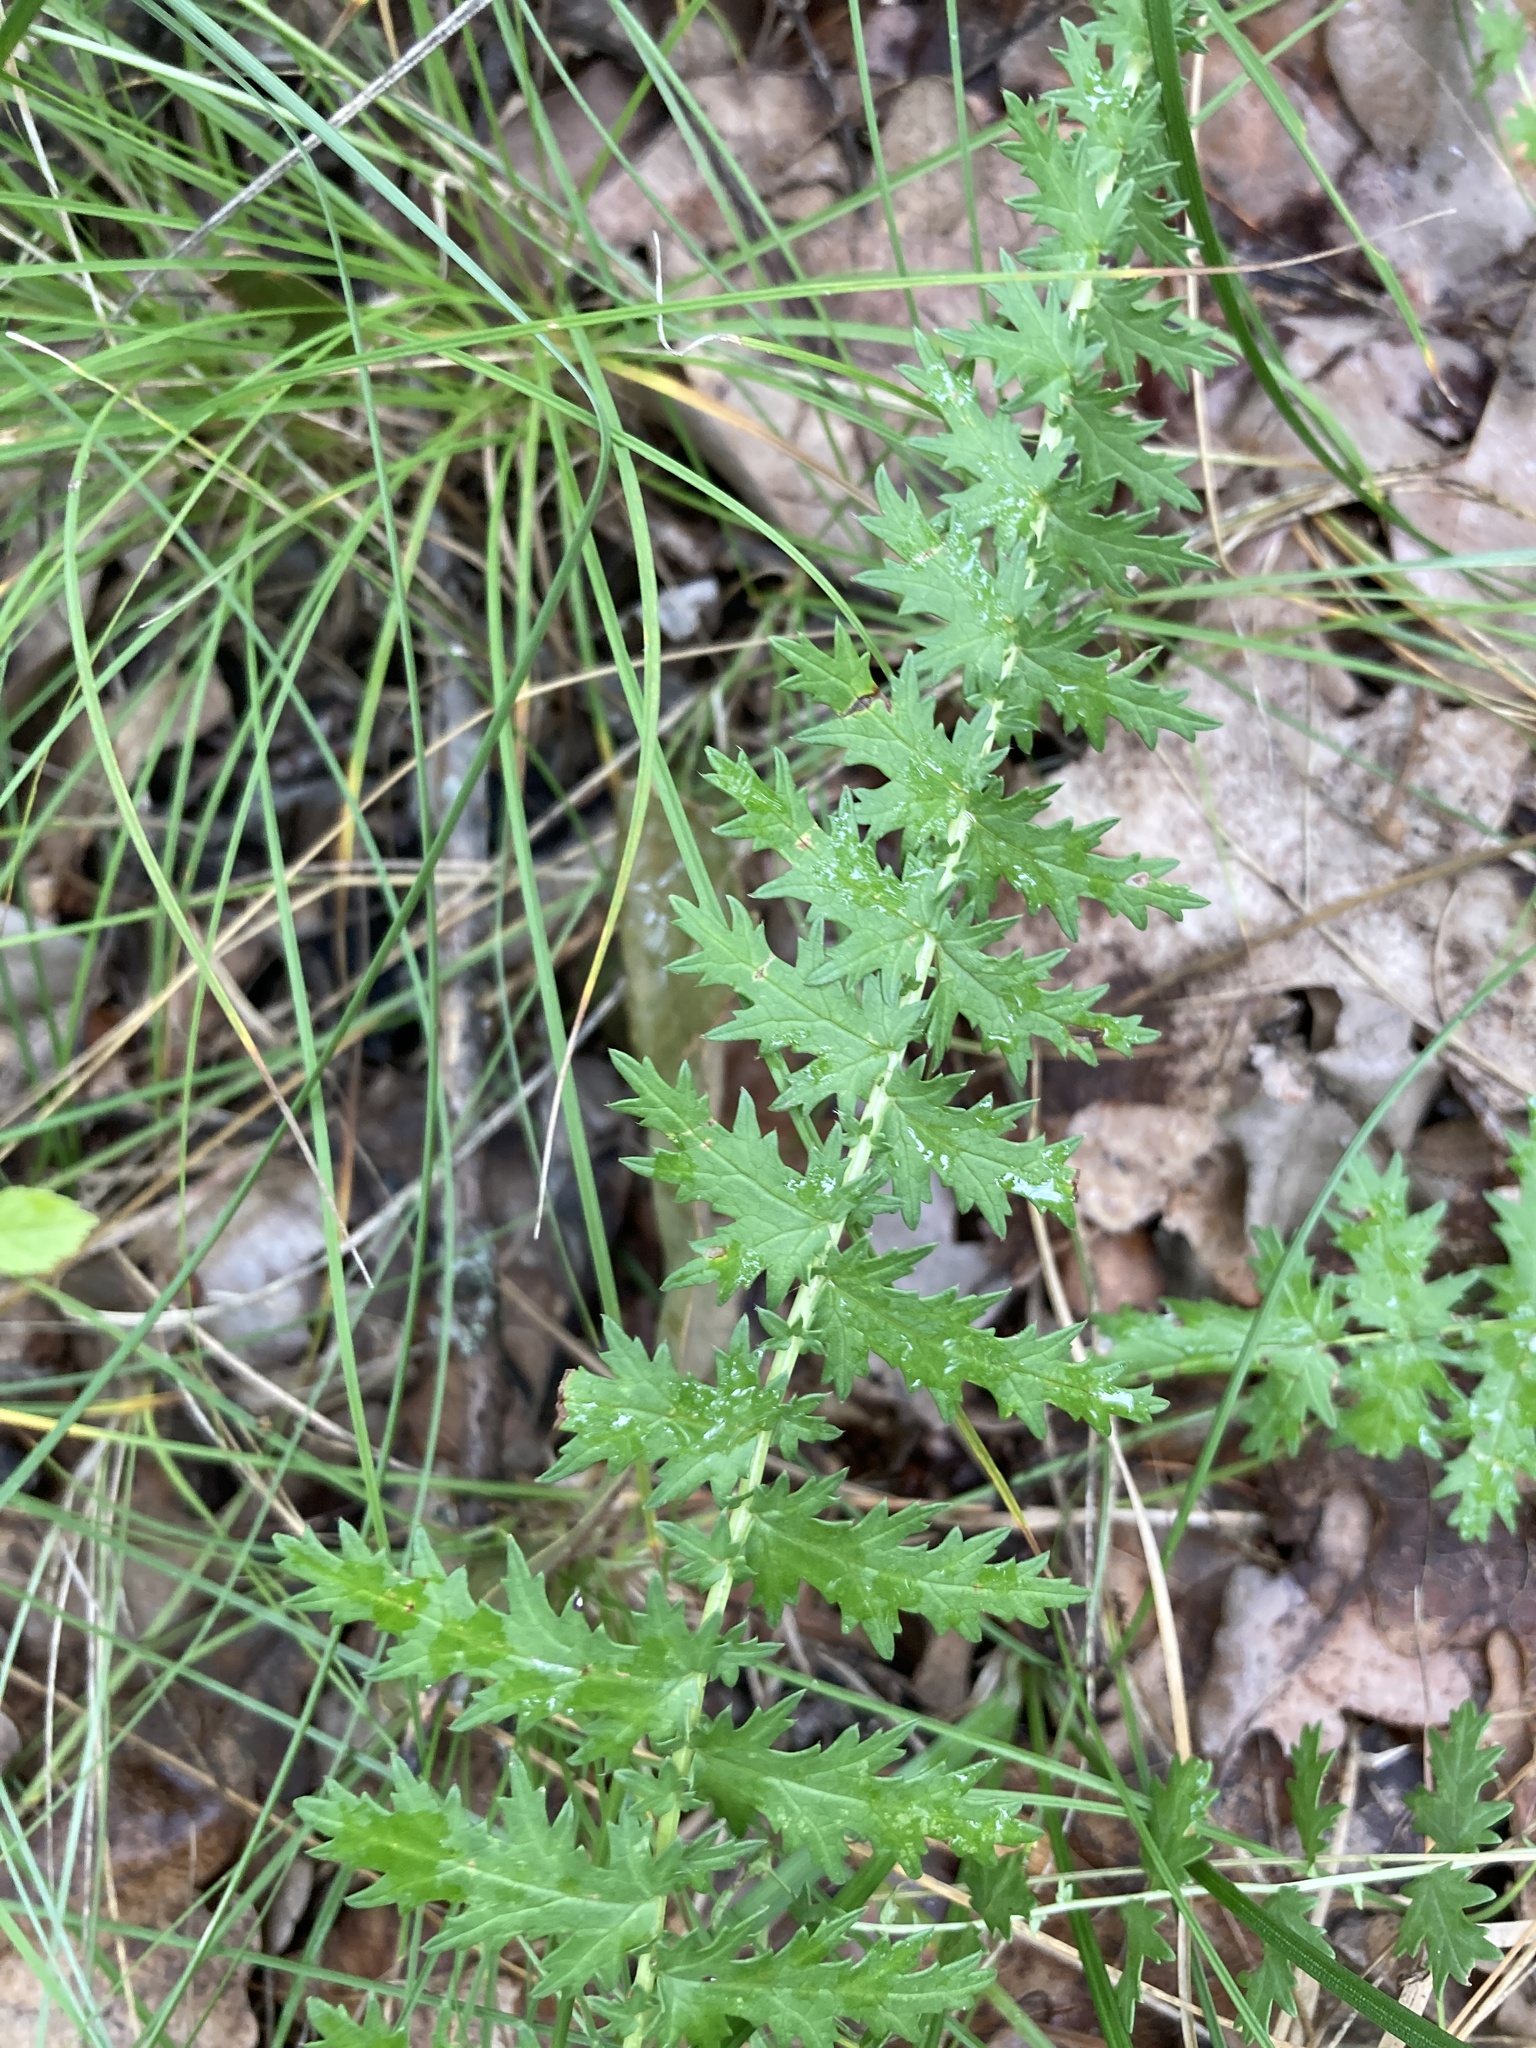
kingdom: Plantae
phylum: Tracheophyta
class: Magnoliopsida
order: Rosales
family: Rosaceae
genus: Filipendula
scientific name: Filipendula vulgaris
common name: Dropwort
